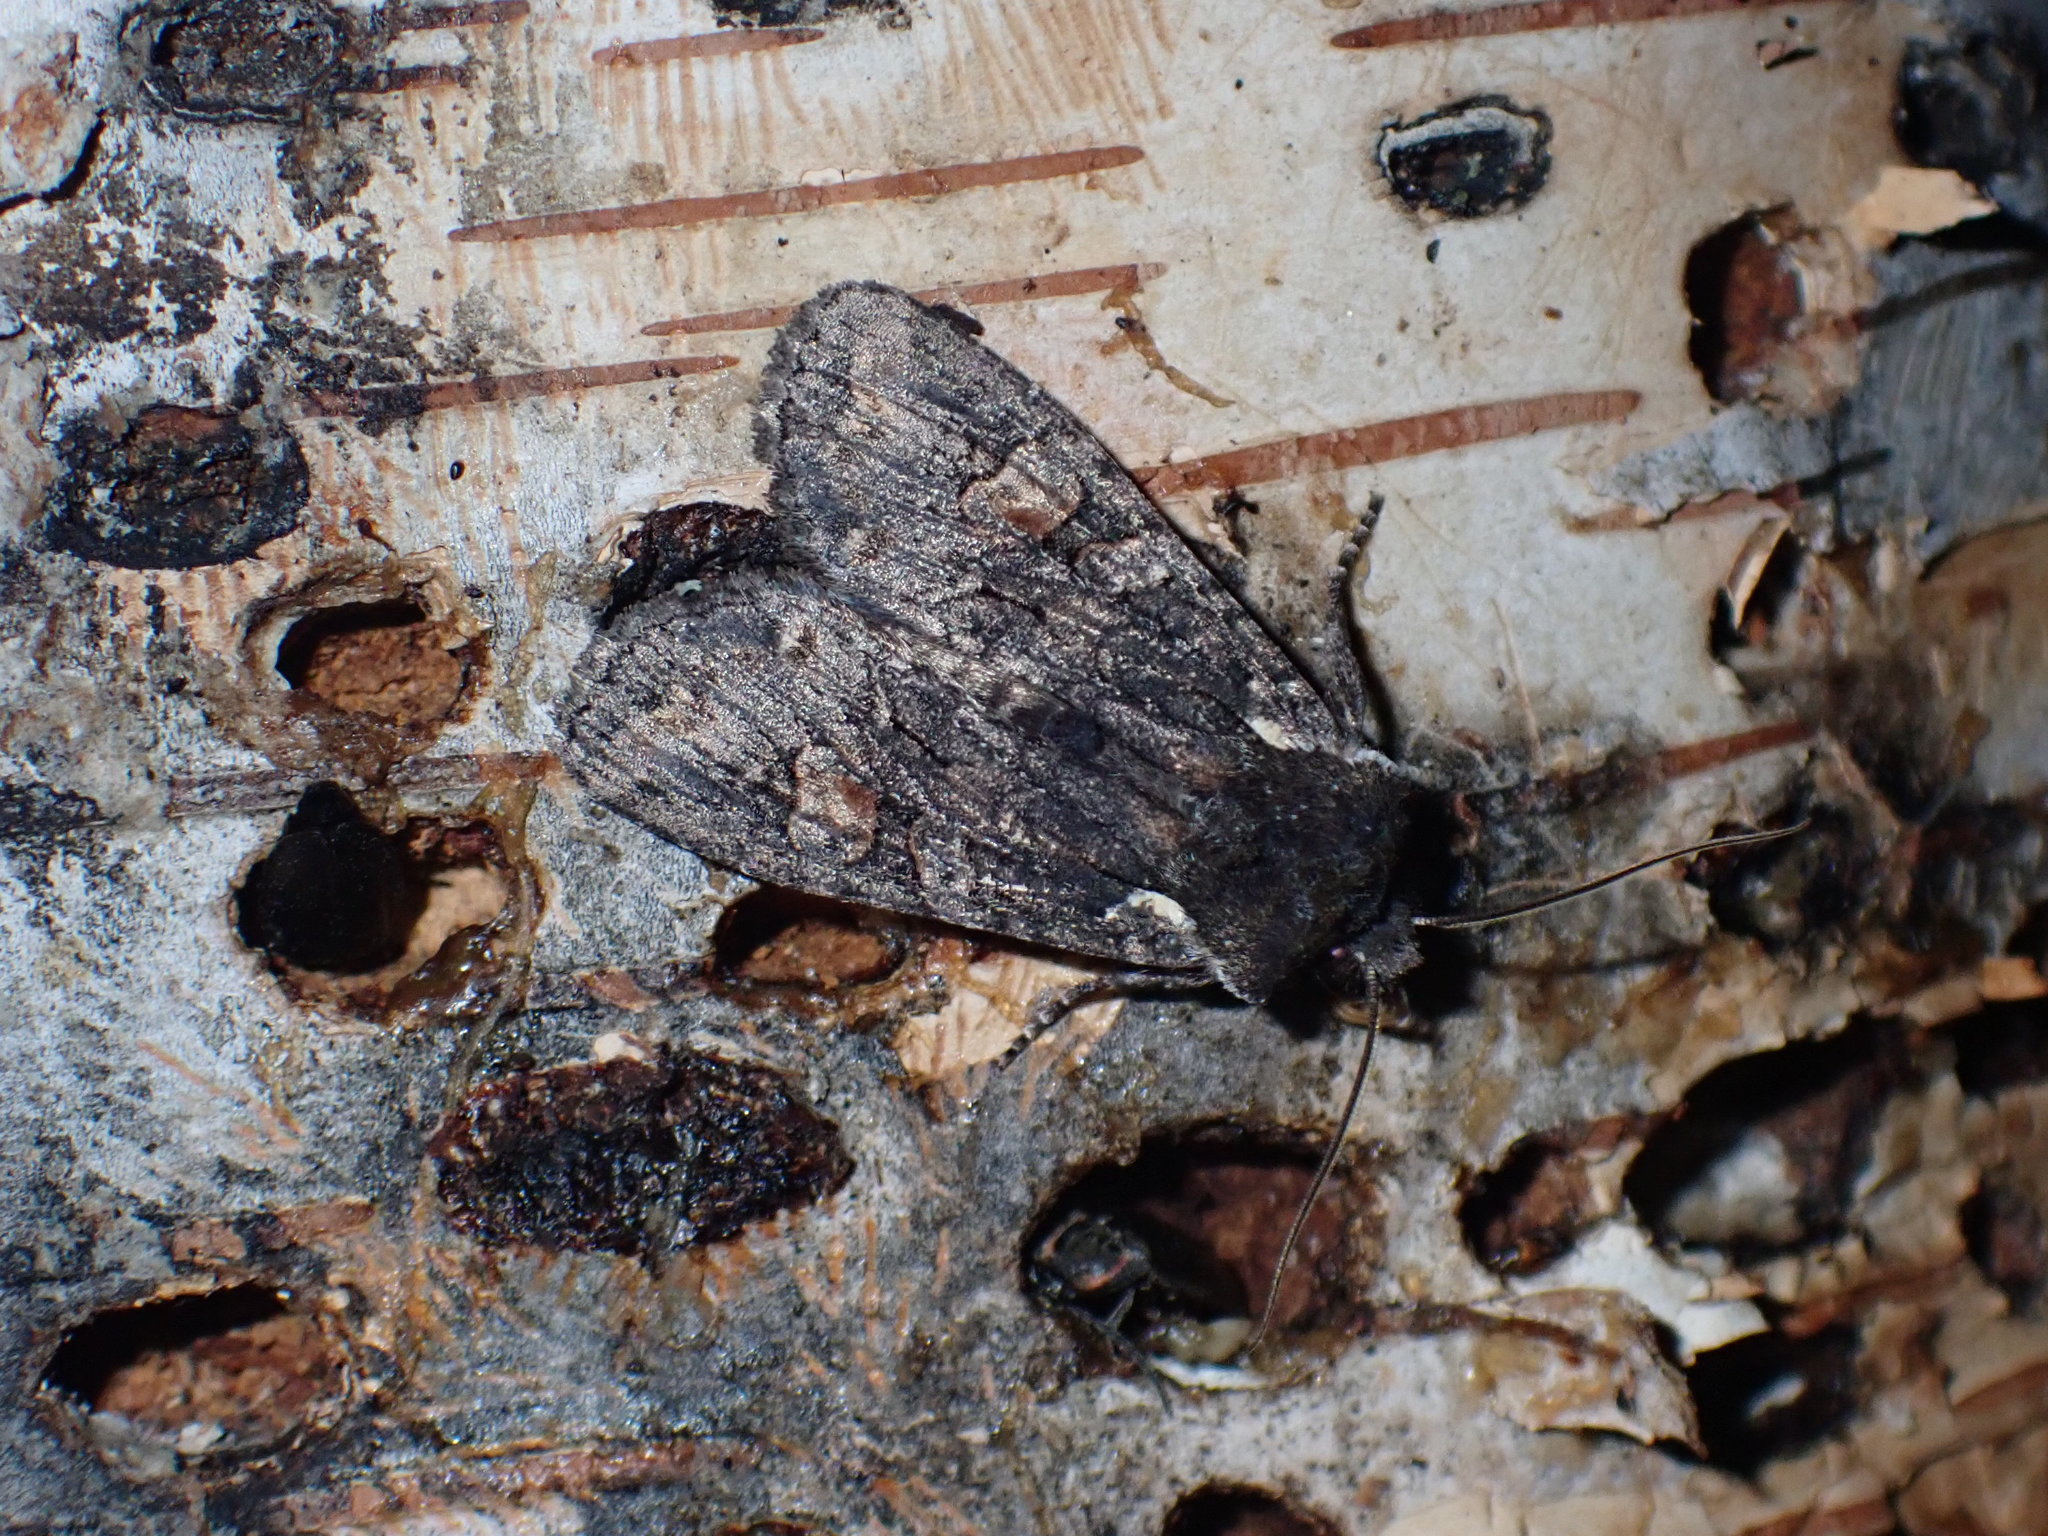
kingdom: Animalia
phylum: Arthropoda
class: Insecta
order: Lepidoptera
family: Noctuidae
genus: Lithophane
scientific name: Lithophane pexata
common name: Plush-naped pinion moth
